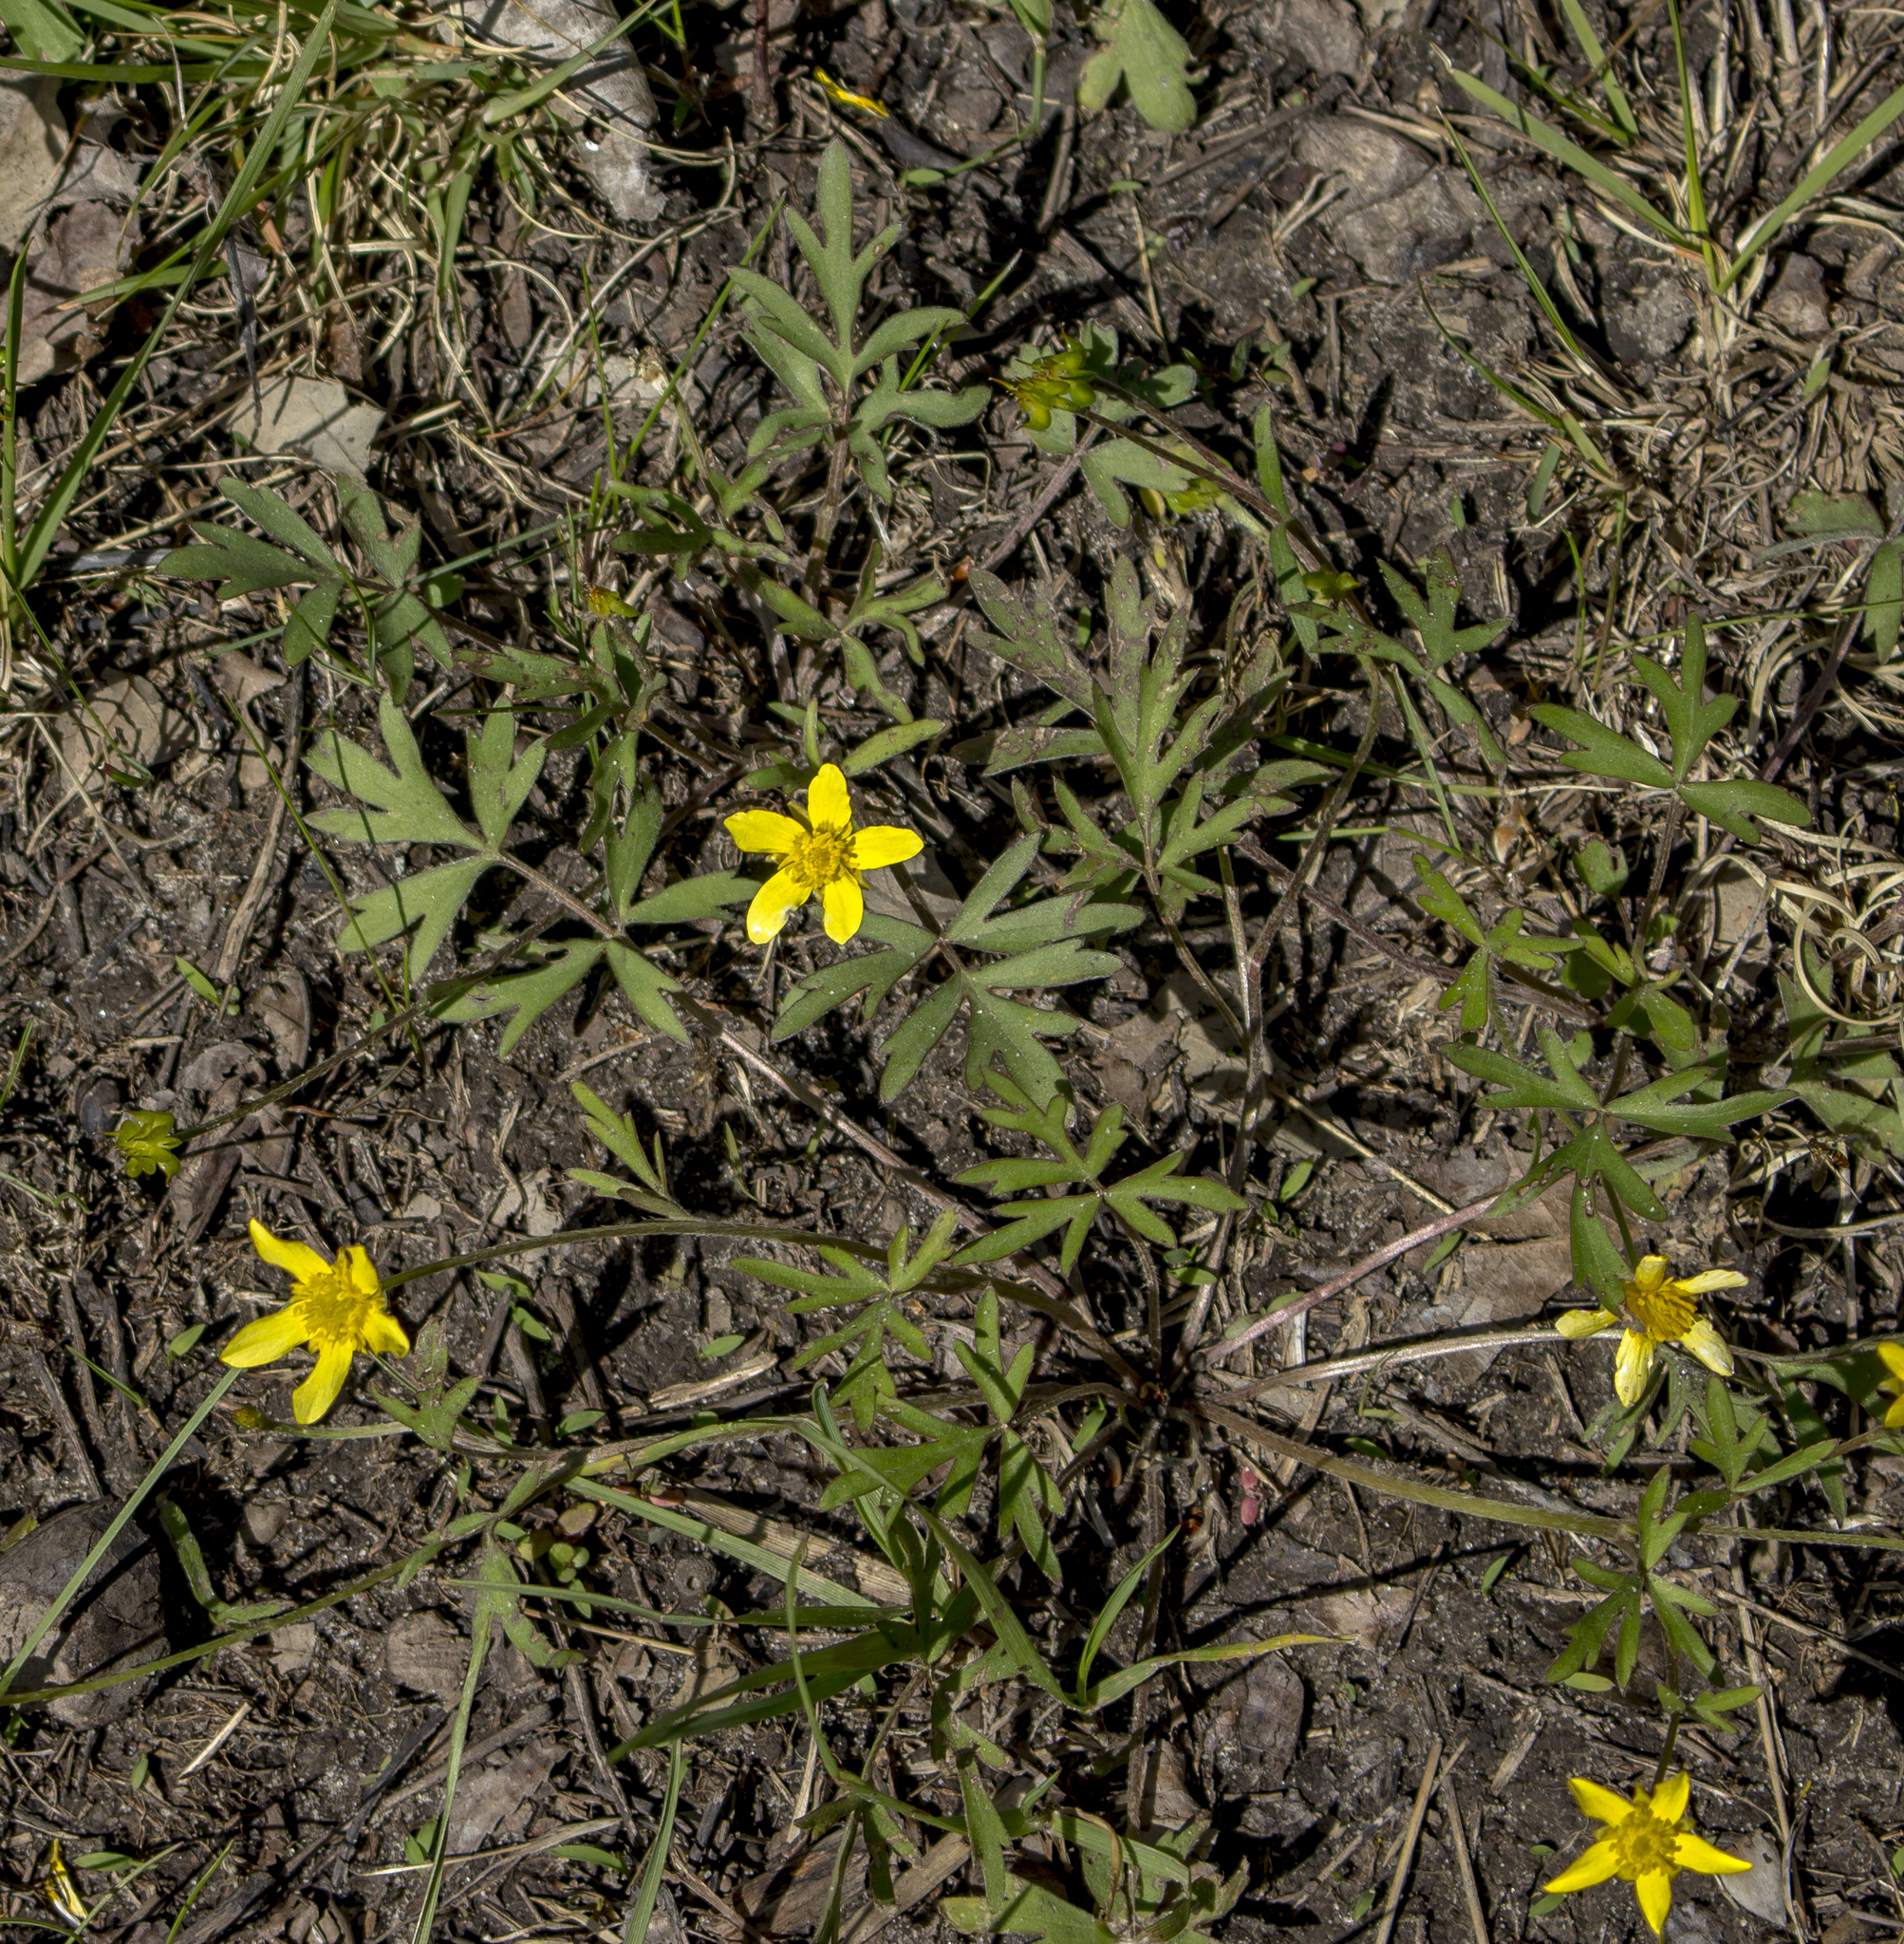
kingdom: Plantae
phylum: Tracheophyta
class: Magnoliopsida
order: Ranunculales
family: Ranunculaceae
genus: Ranunculus
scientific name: Ranunculus fascicularis
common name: Early buttercup
